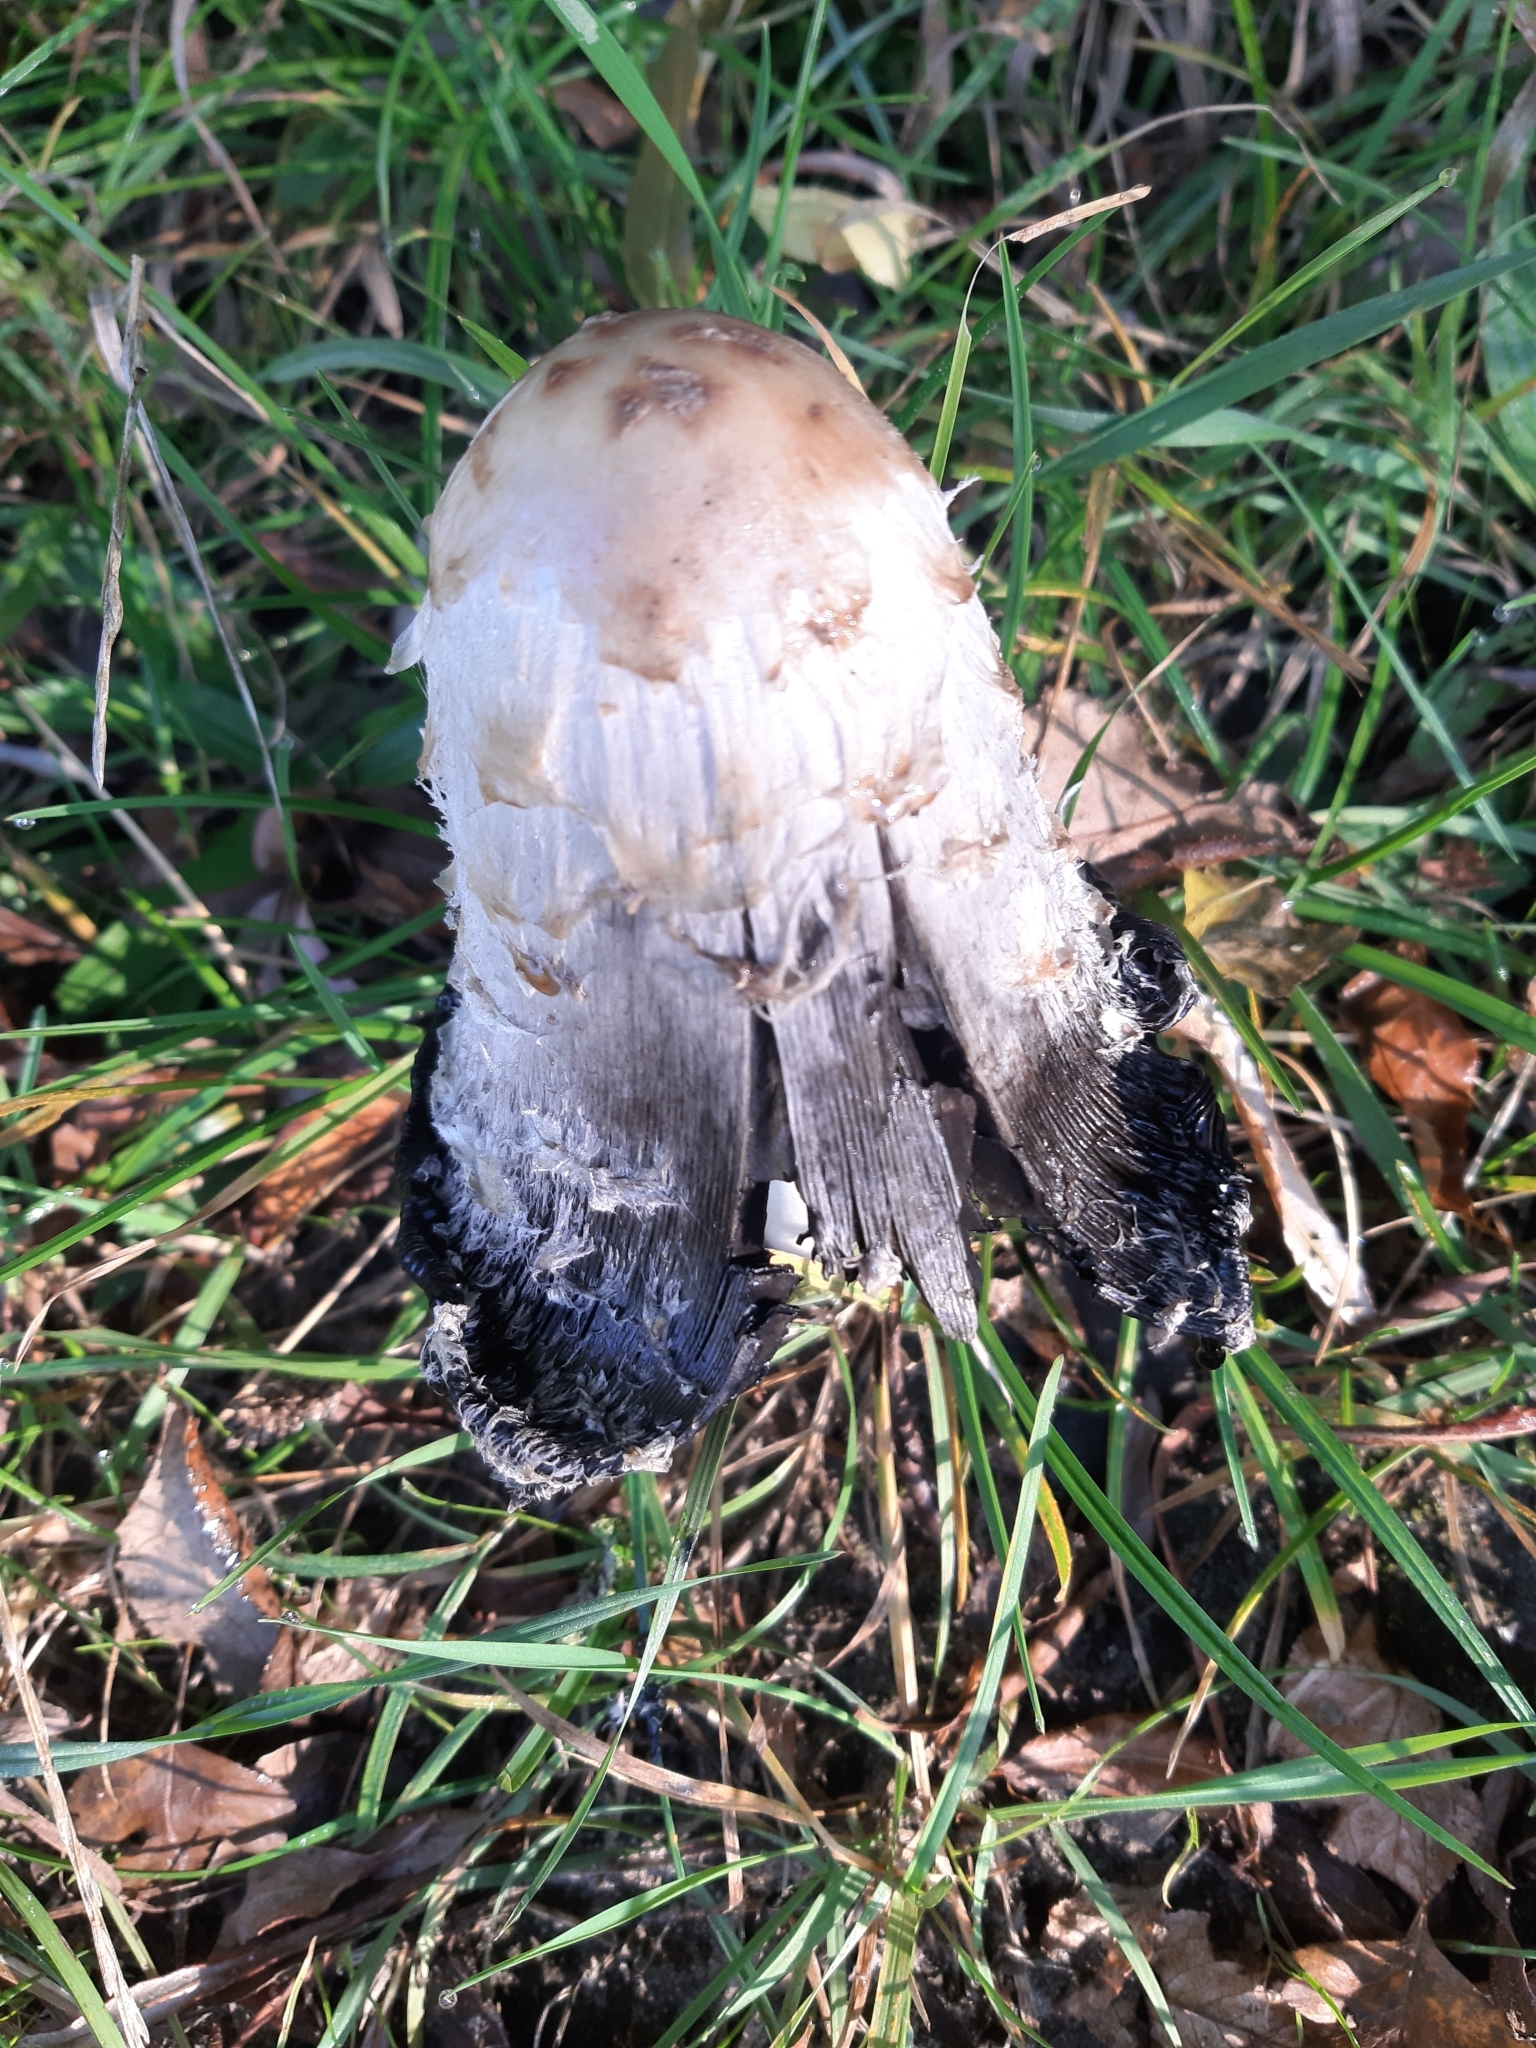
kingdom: Fungi
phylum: Basidiomycota
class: Agaricomycetes
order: Agaricales
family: Agaricaceae
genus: Coprinus
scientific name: Coprinus comatus
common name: Lawyer's wig
